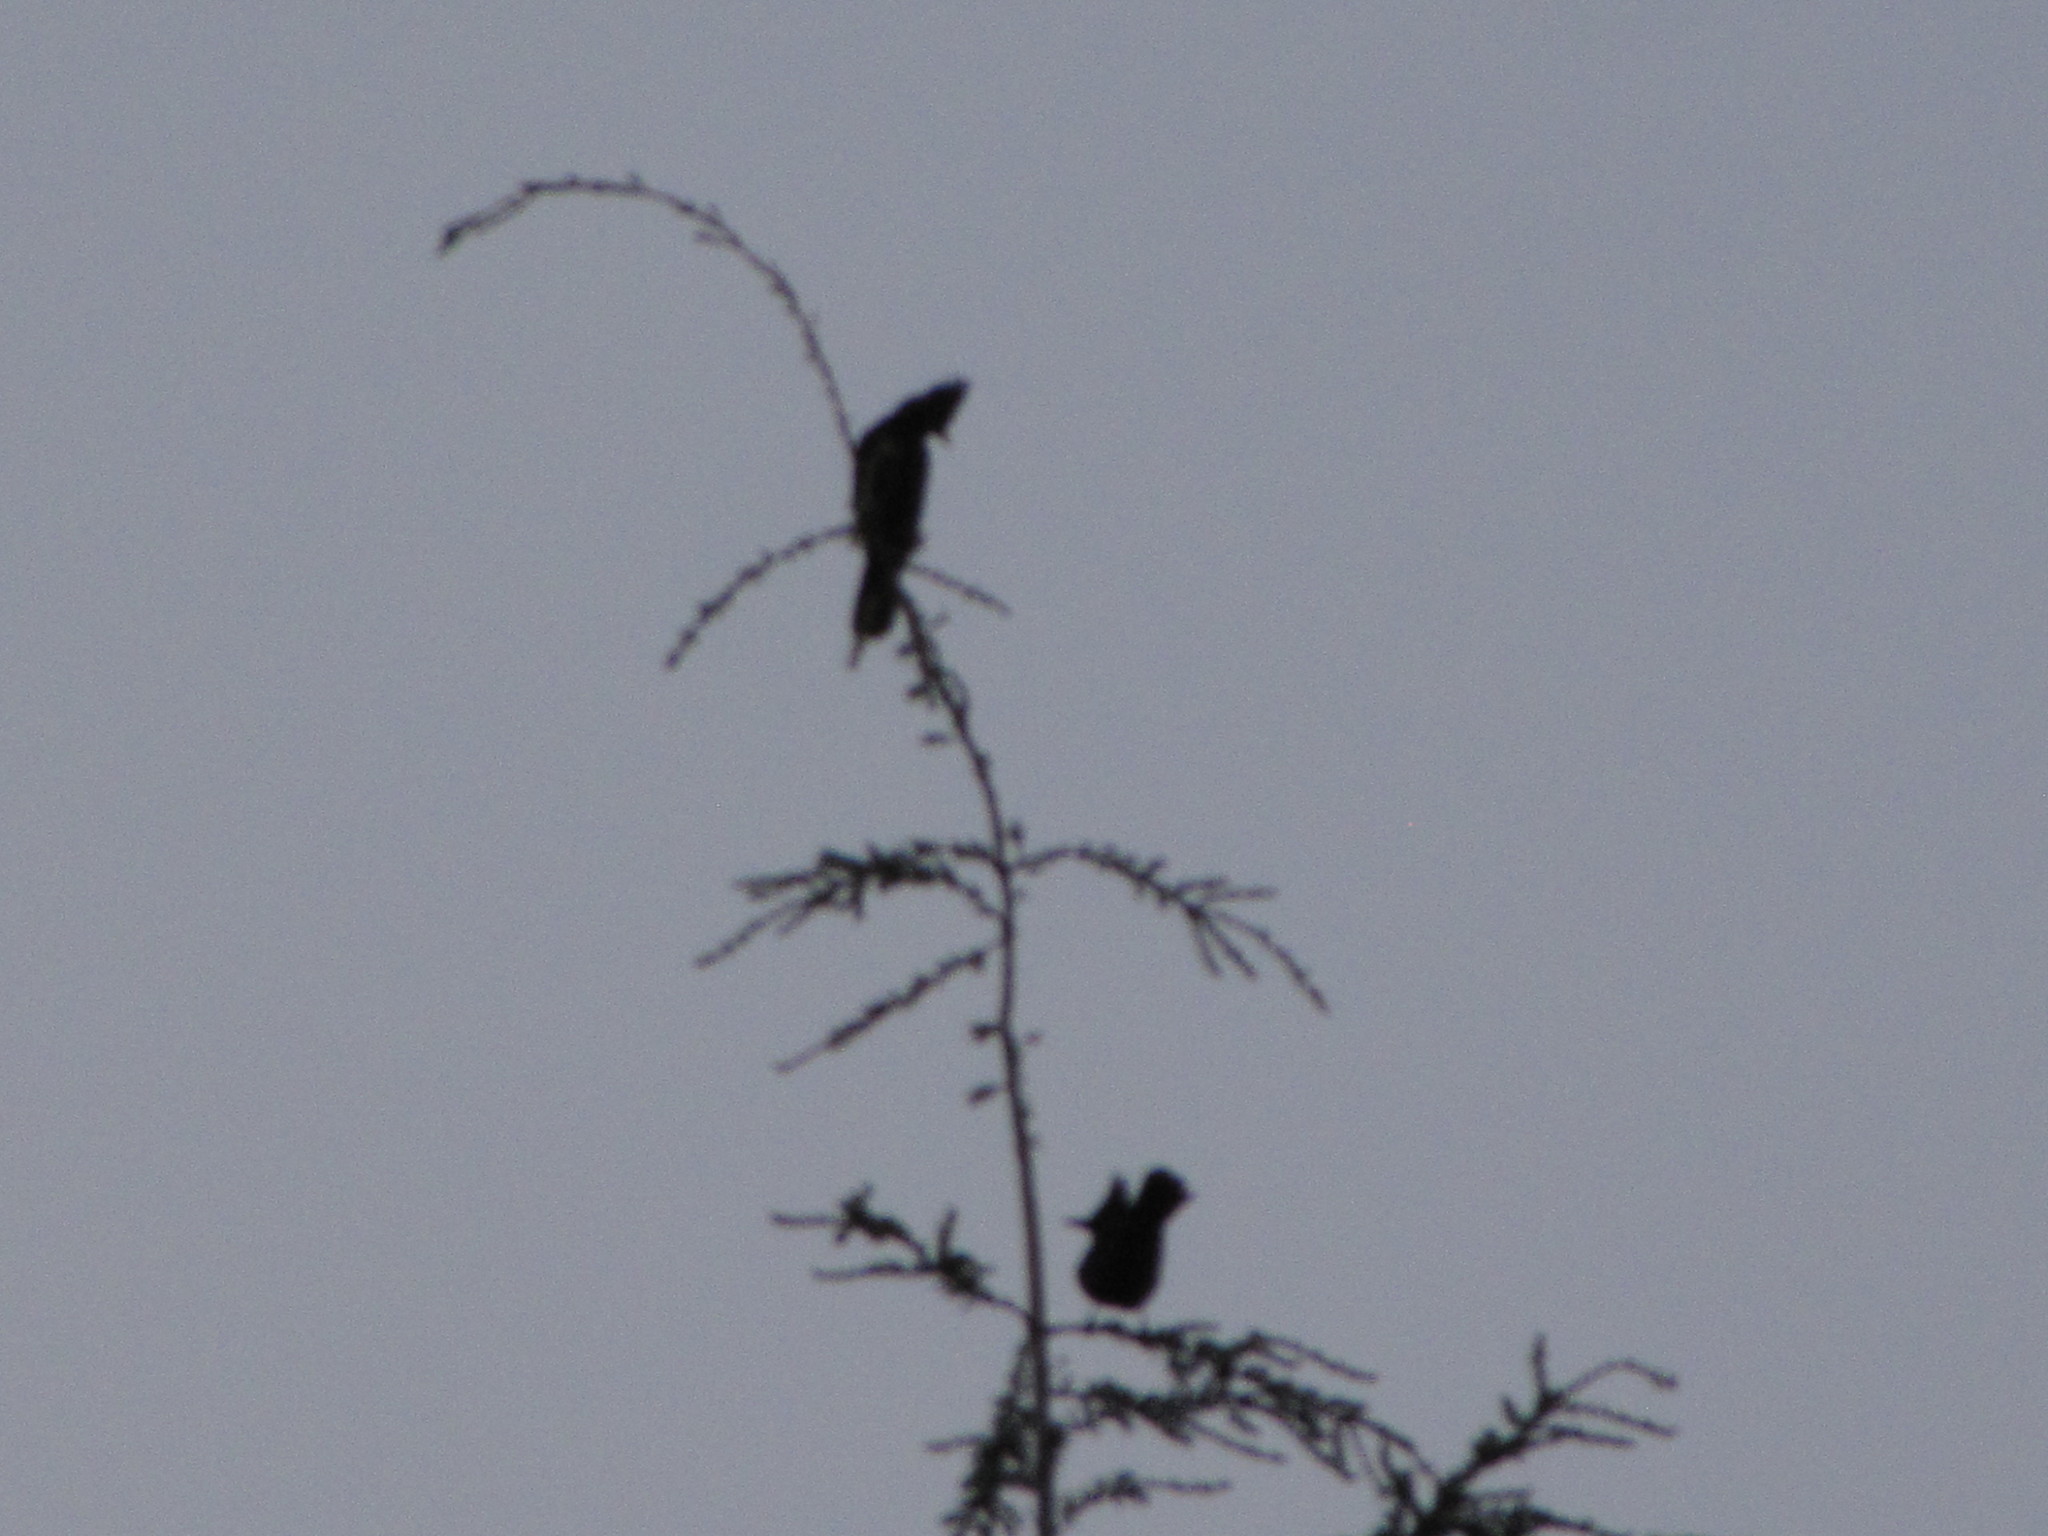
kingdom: Animalia
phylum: Chordata
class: Aves
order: Passeriformes
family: Corvidae
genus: Cyanocitta
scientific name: Cyanocitta stelleri
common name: Steller's jay
